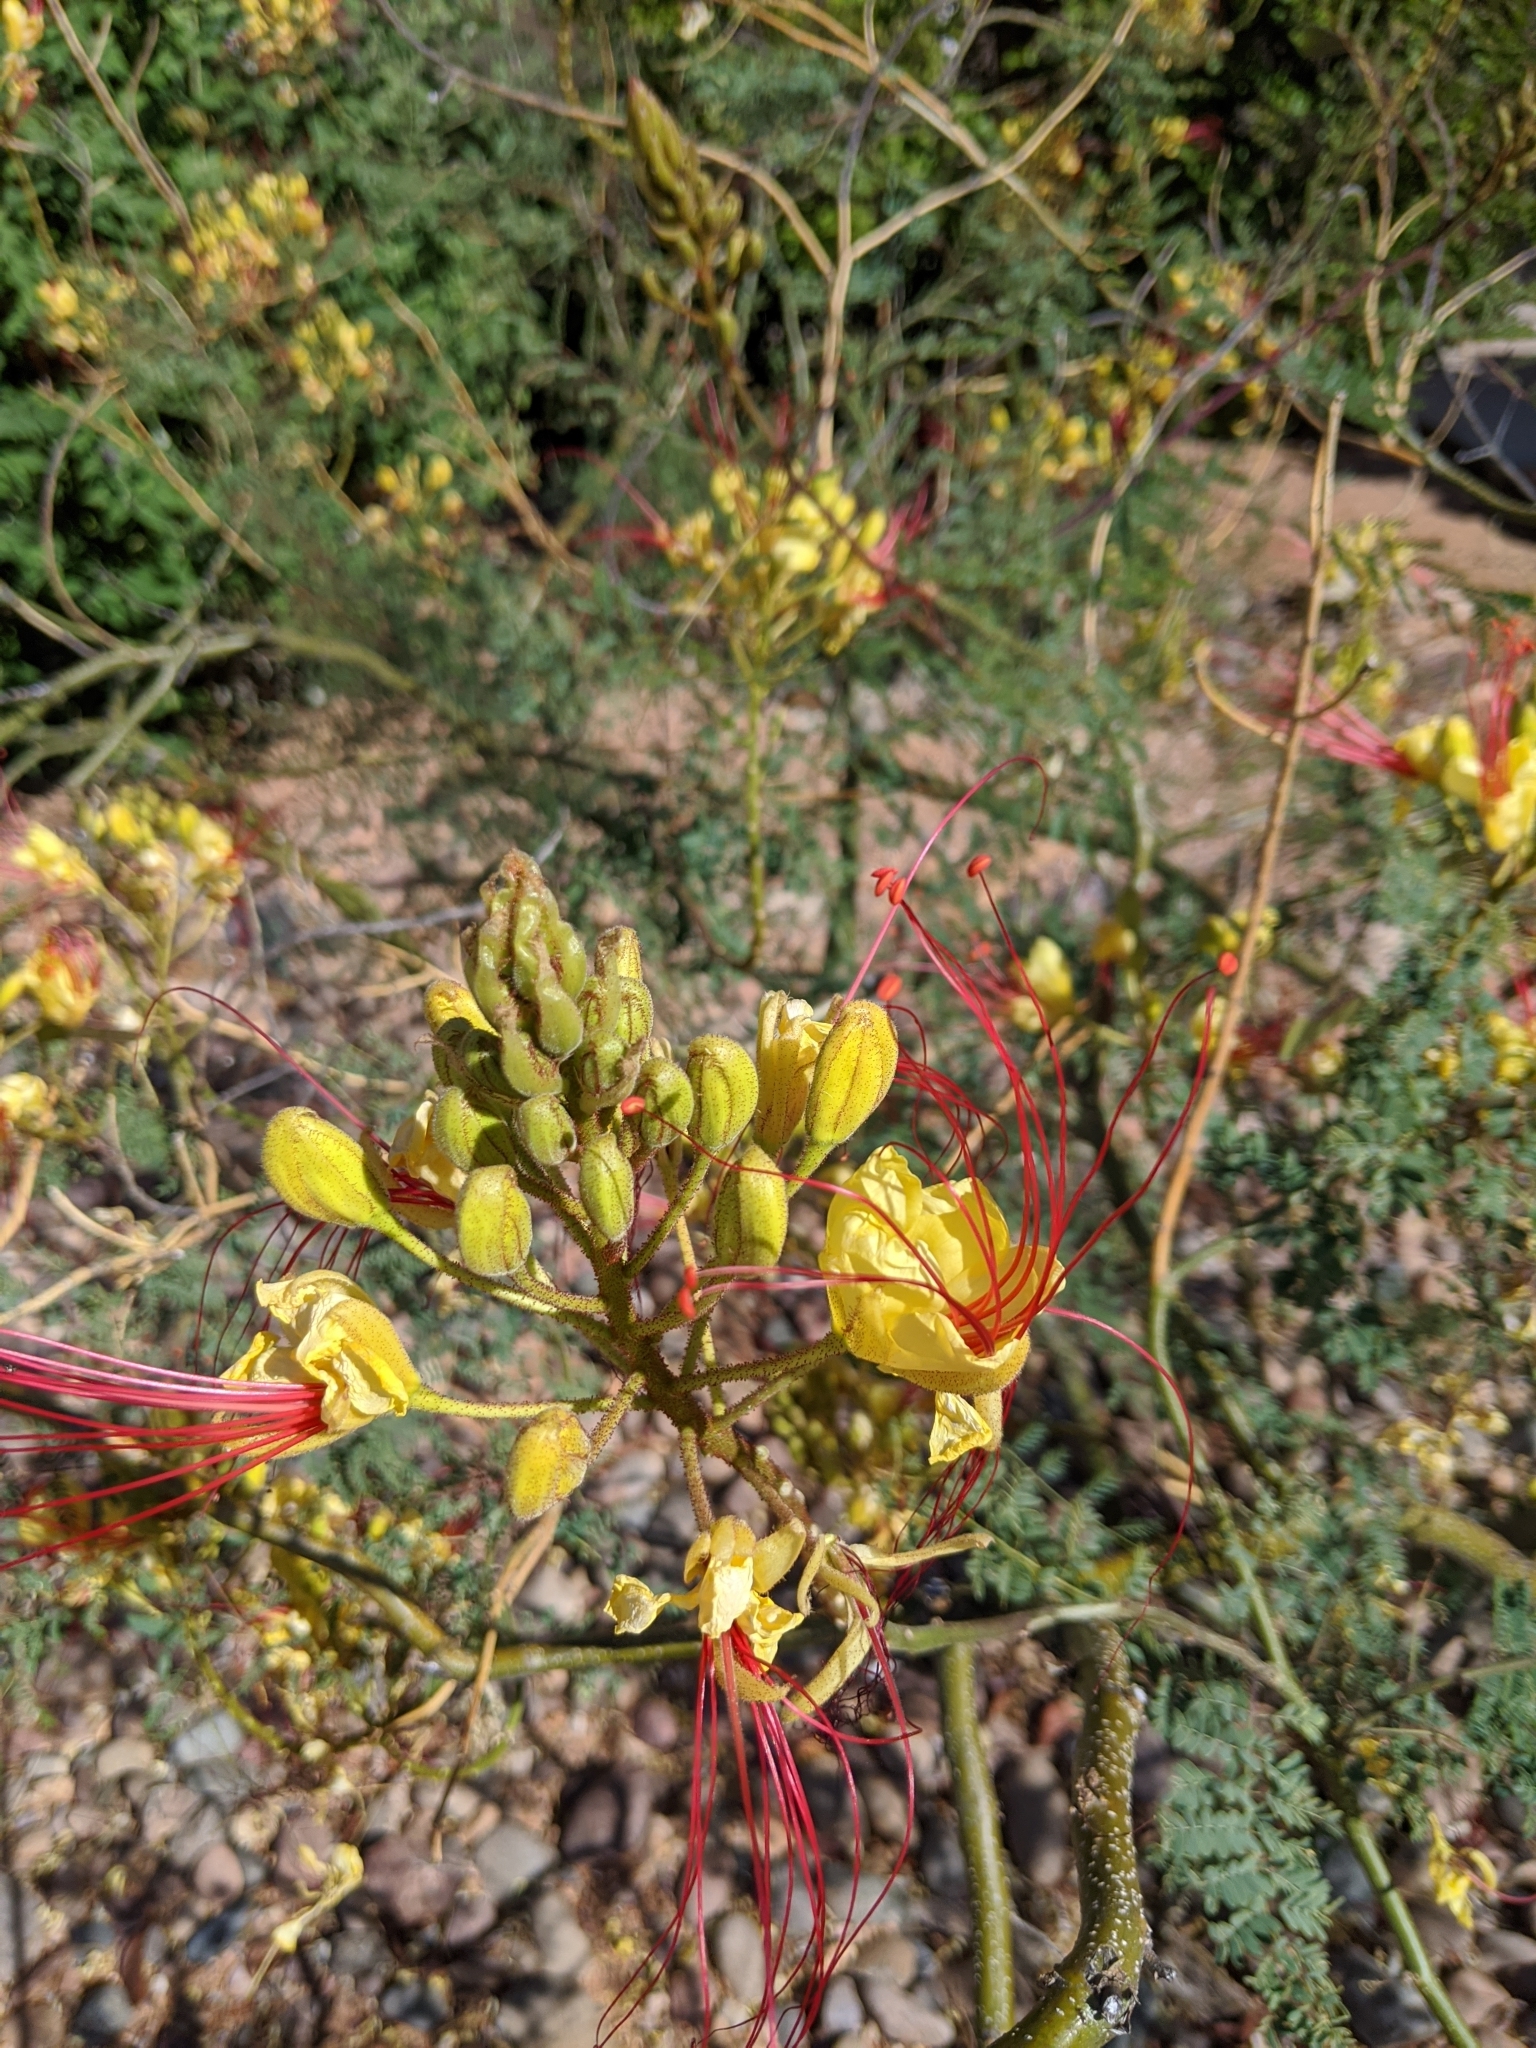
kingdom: Plantae
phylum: Tracheophyta
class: Magnoliopsida
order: Fabales
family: Fabaceae
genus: Erythrostemon
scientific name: Erythrostemon gilliesii
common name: Bird-of-paradise shrub
